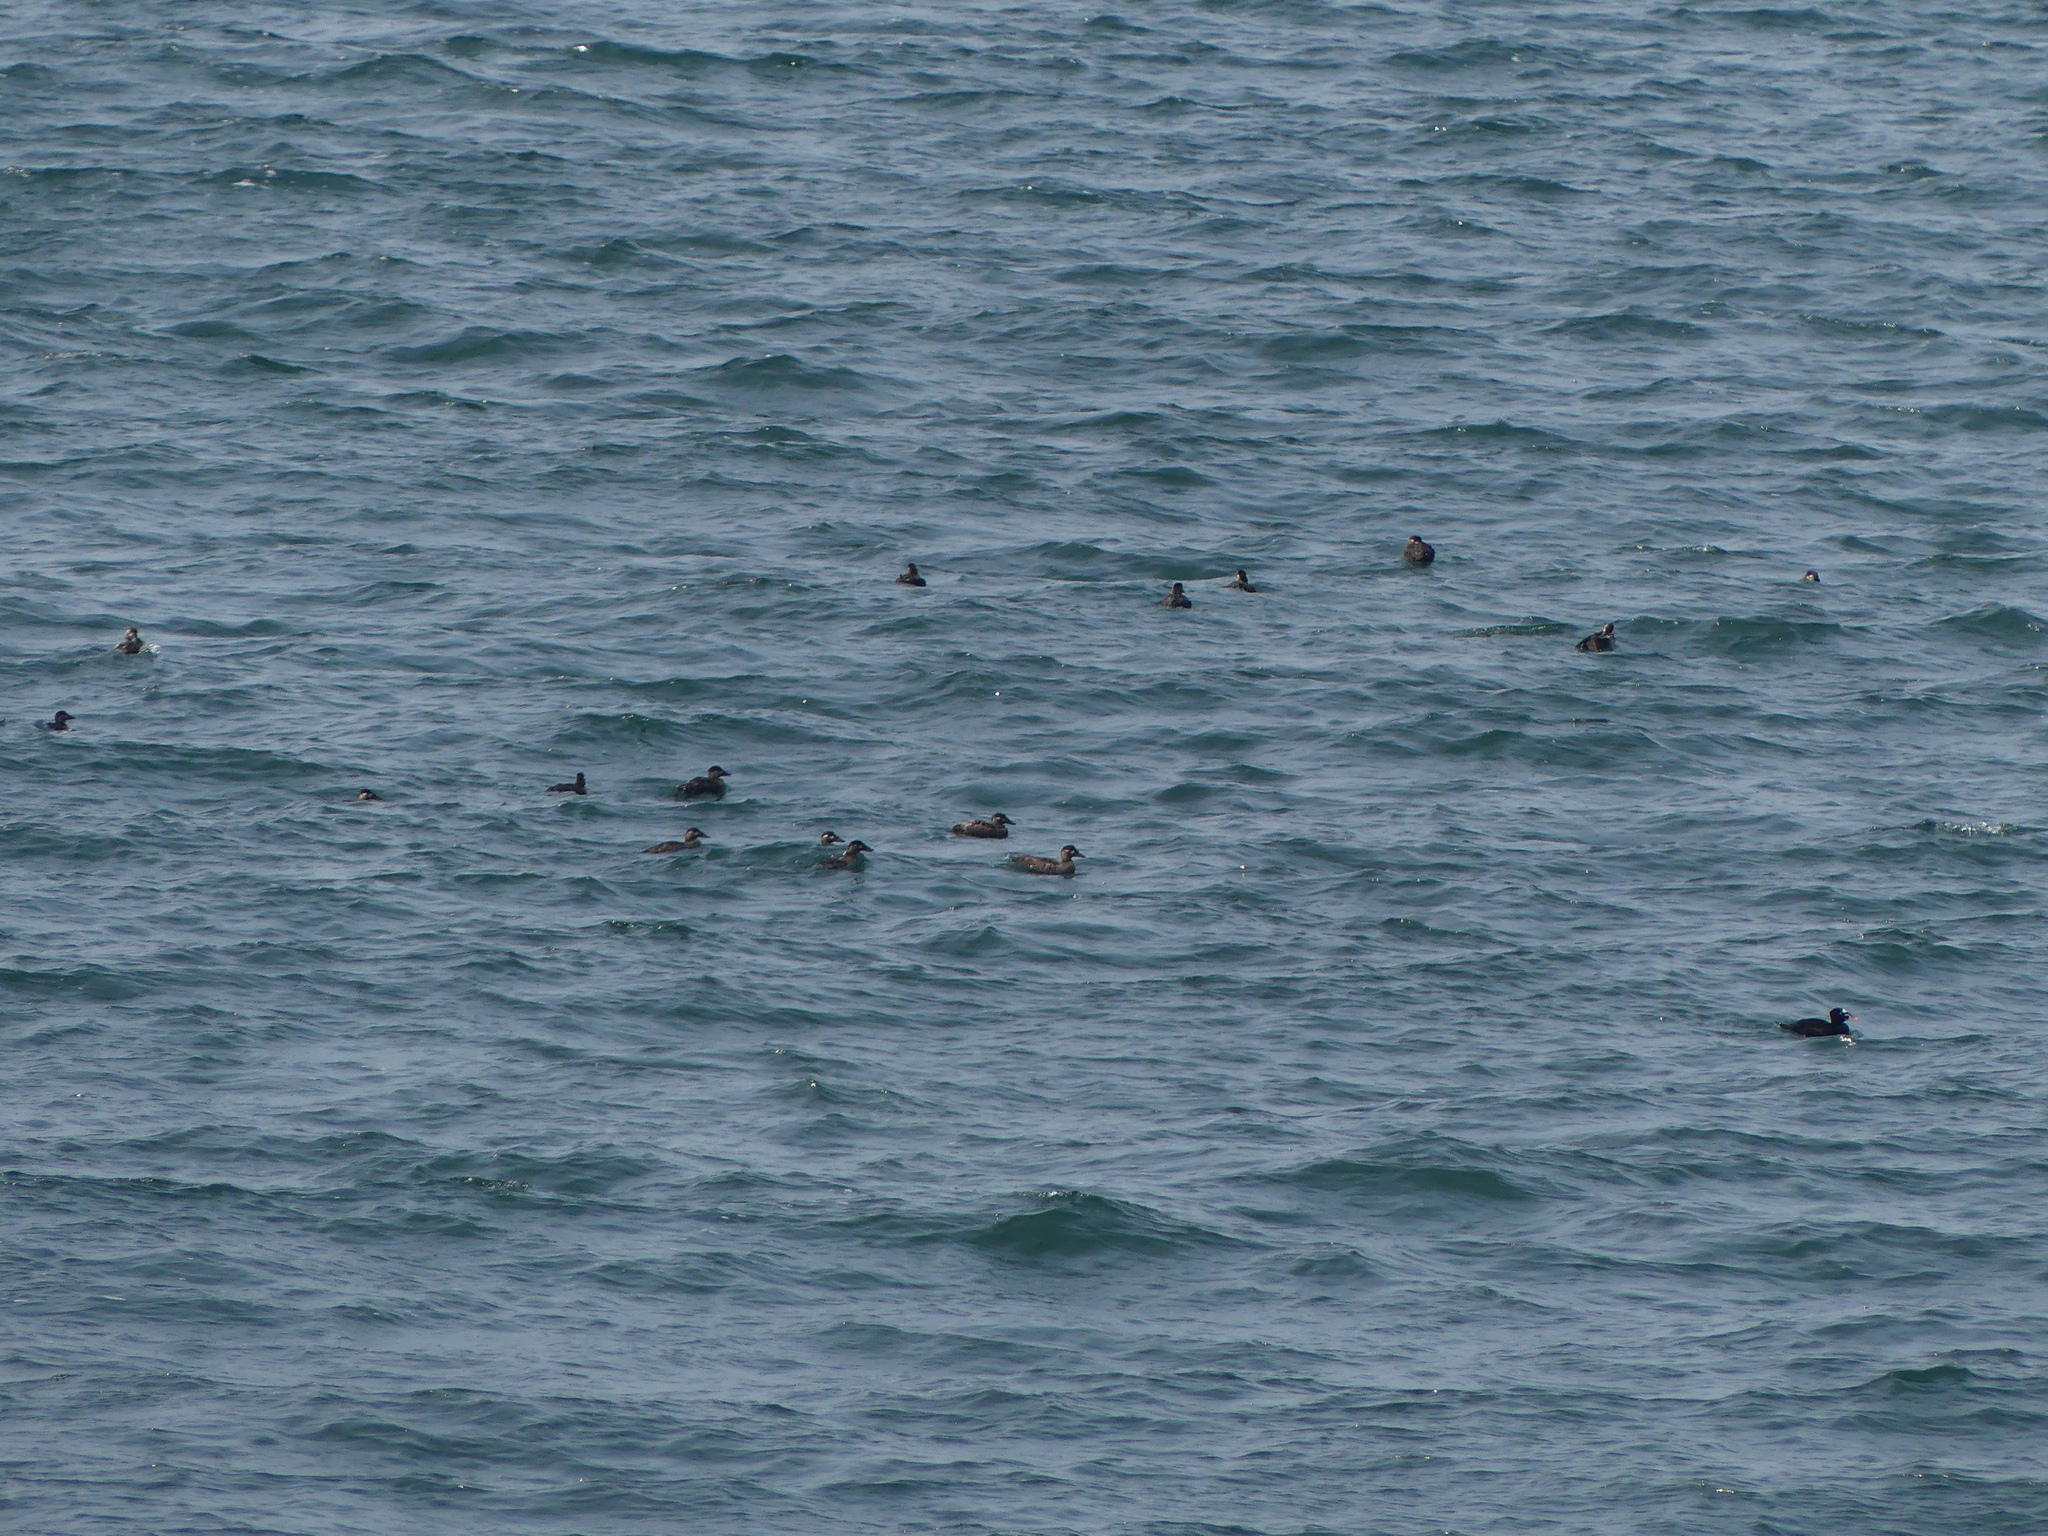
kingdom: Animalia
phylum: Chordata
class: Aves
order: Anseriformes
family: Anatidae
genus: Melanitta
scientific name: Melanitta perspicillata
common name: Surf scoter
